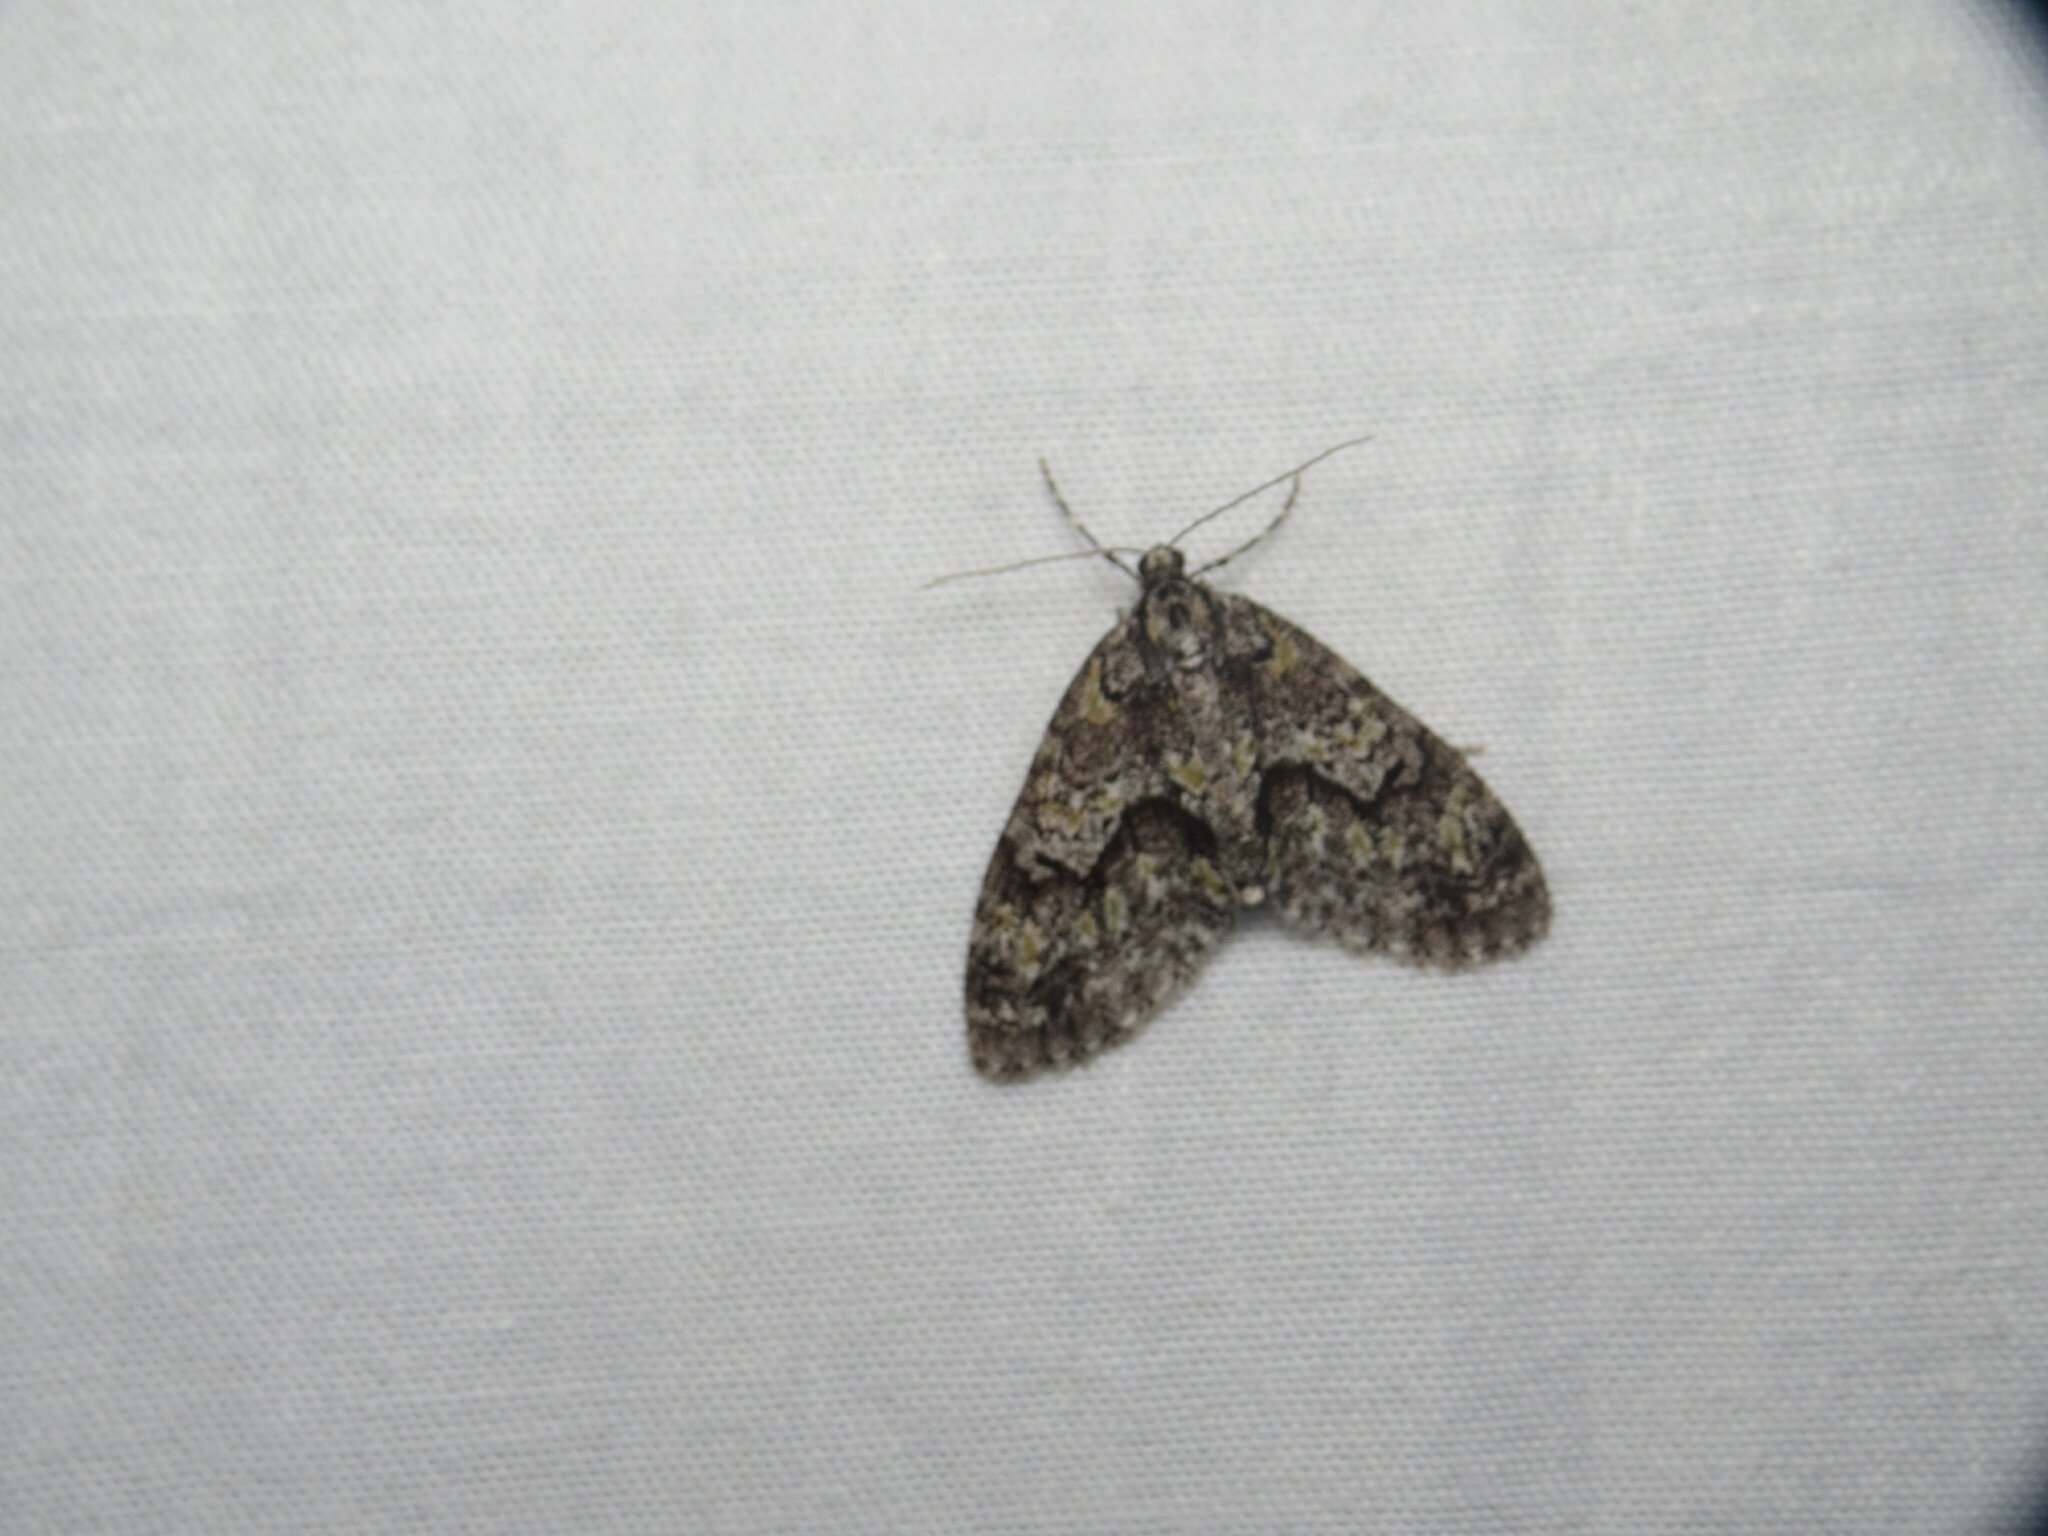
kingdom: Animalia
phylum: Arthropoda
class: Insecta
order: Lepidoptera
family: Geometridae
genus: Cladara
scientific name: Cladara limitaria
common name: Mottled gray carpet
